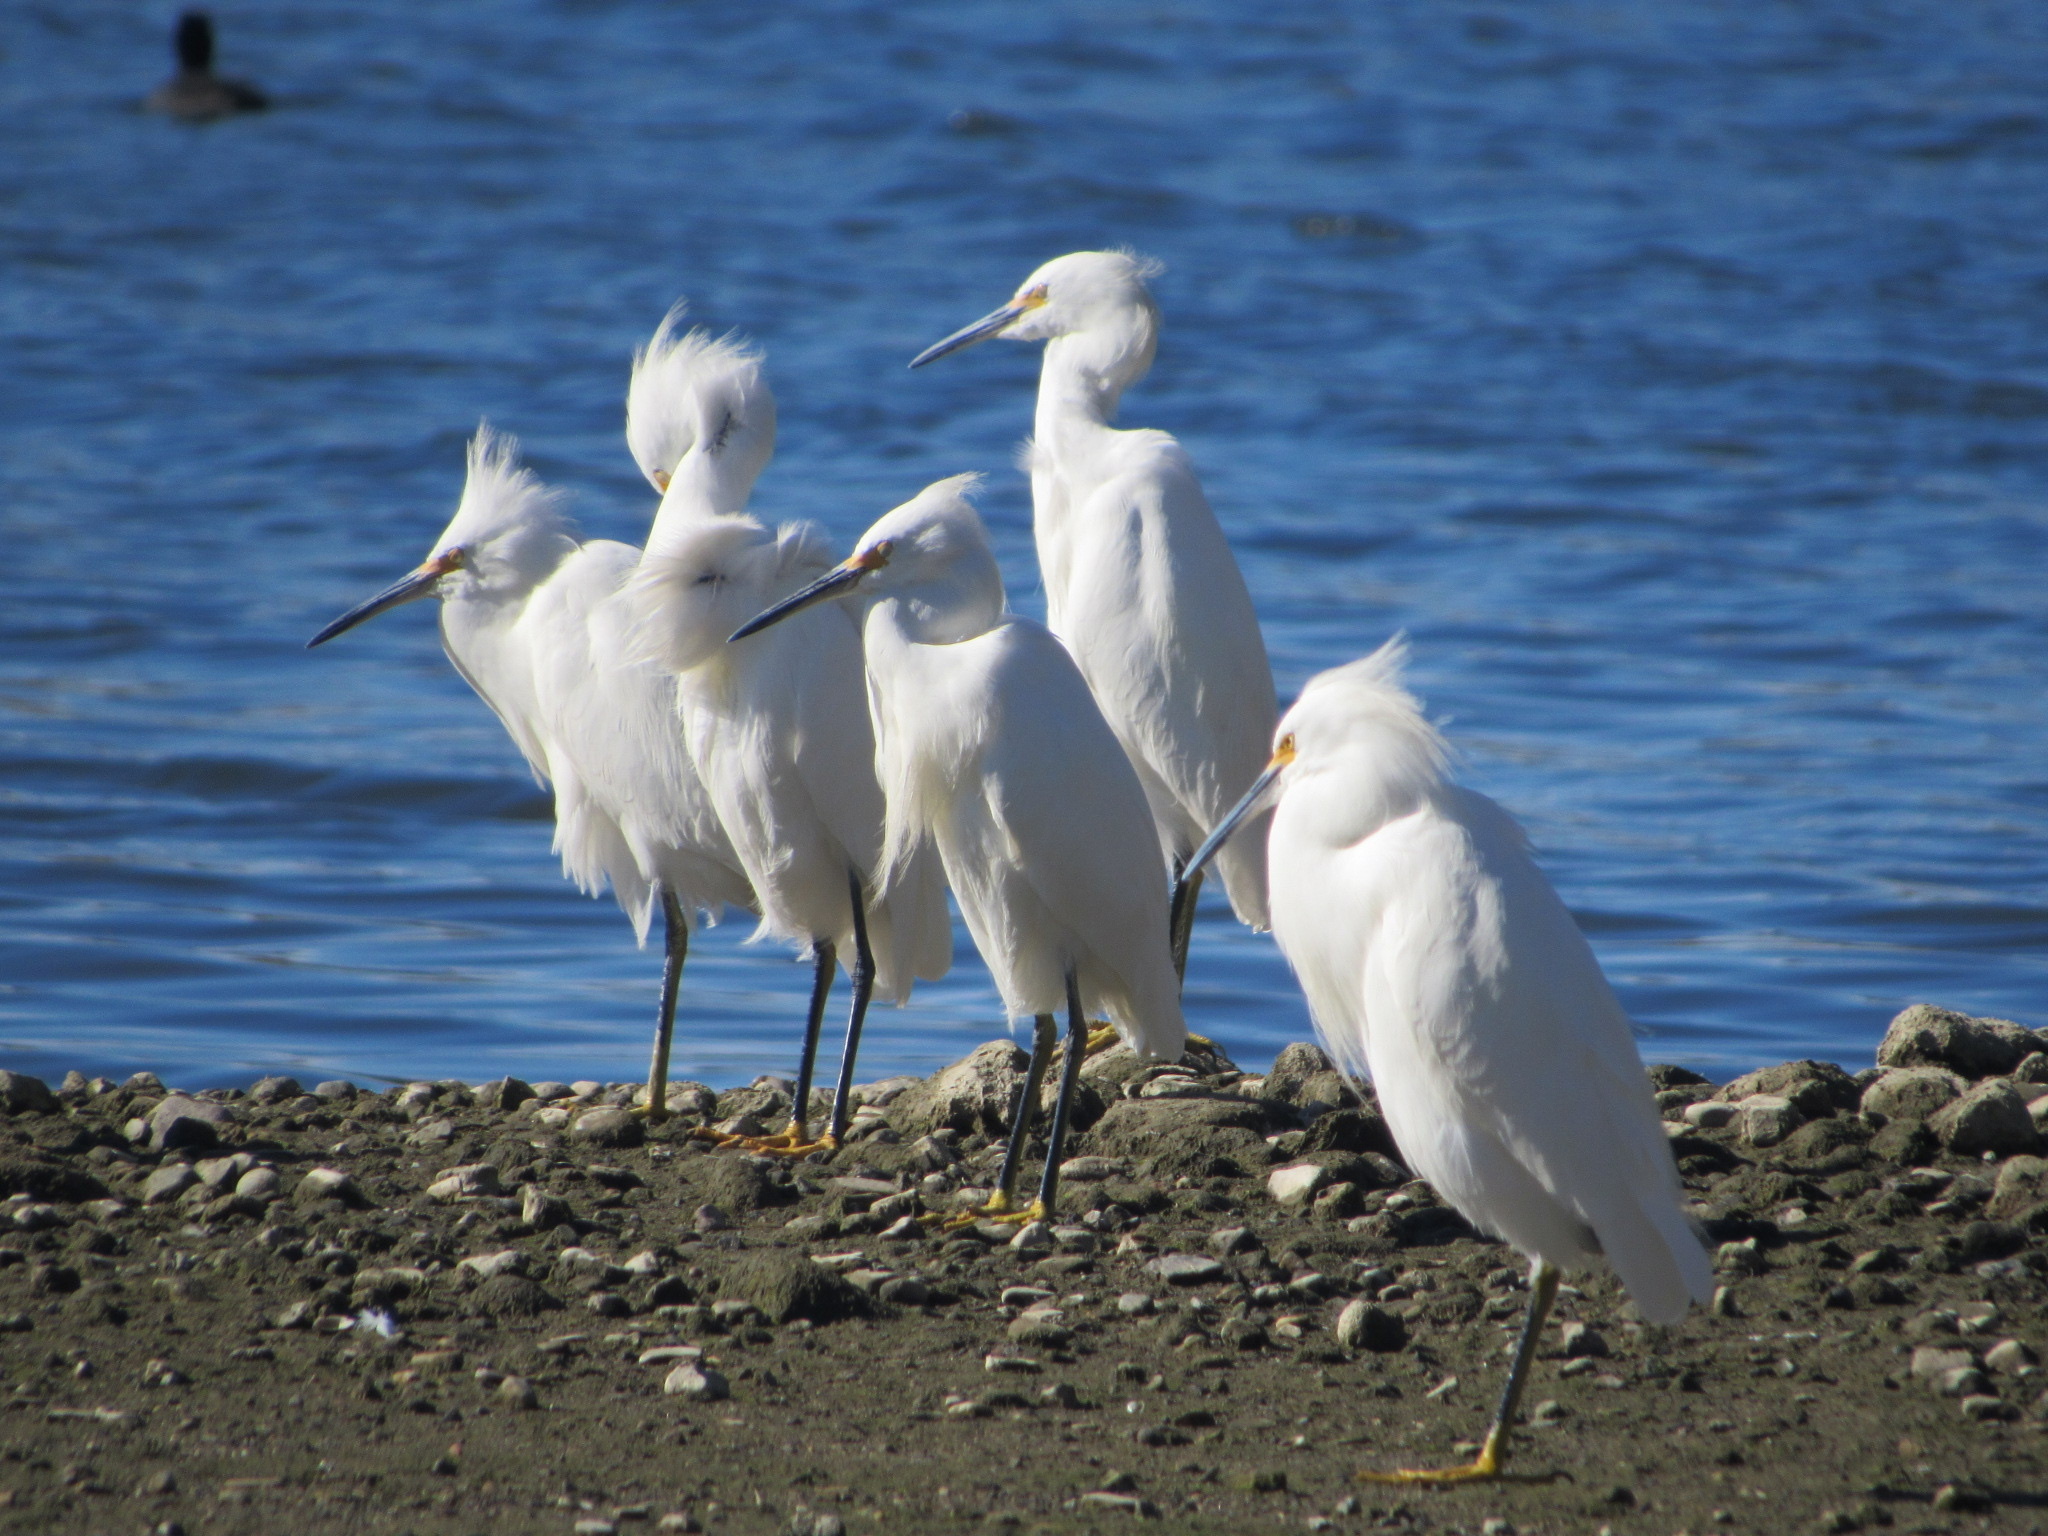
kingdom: Animalia
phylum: Chordata
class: Aves
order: Pelecaniformes
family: Ardeidae
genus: Egretta
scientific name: Egretta thula
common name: Snowy egret
